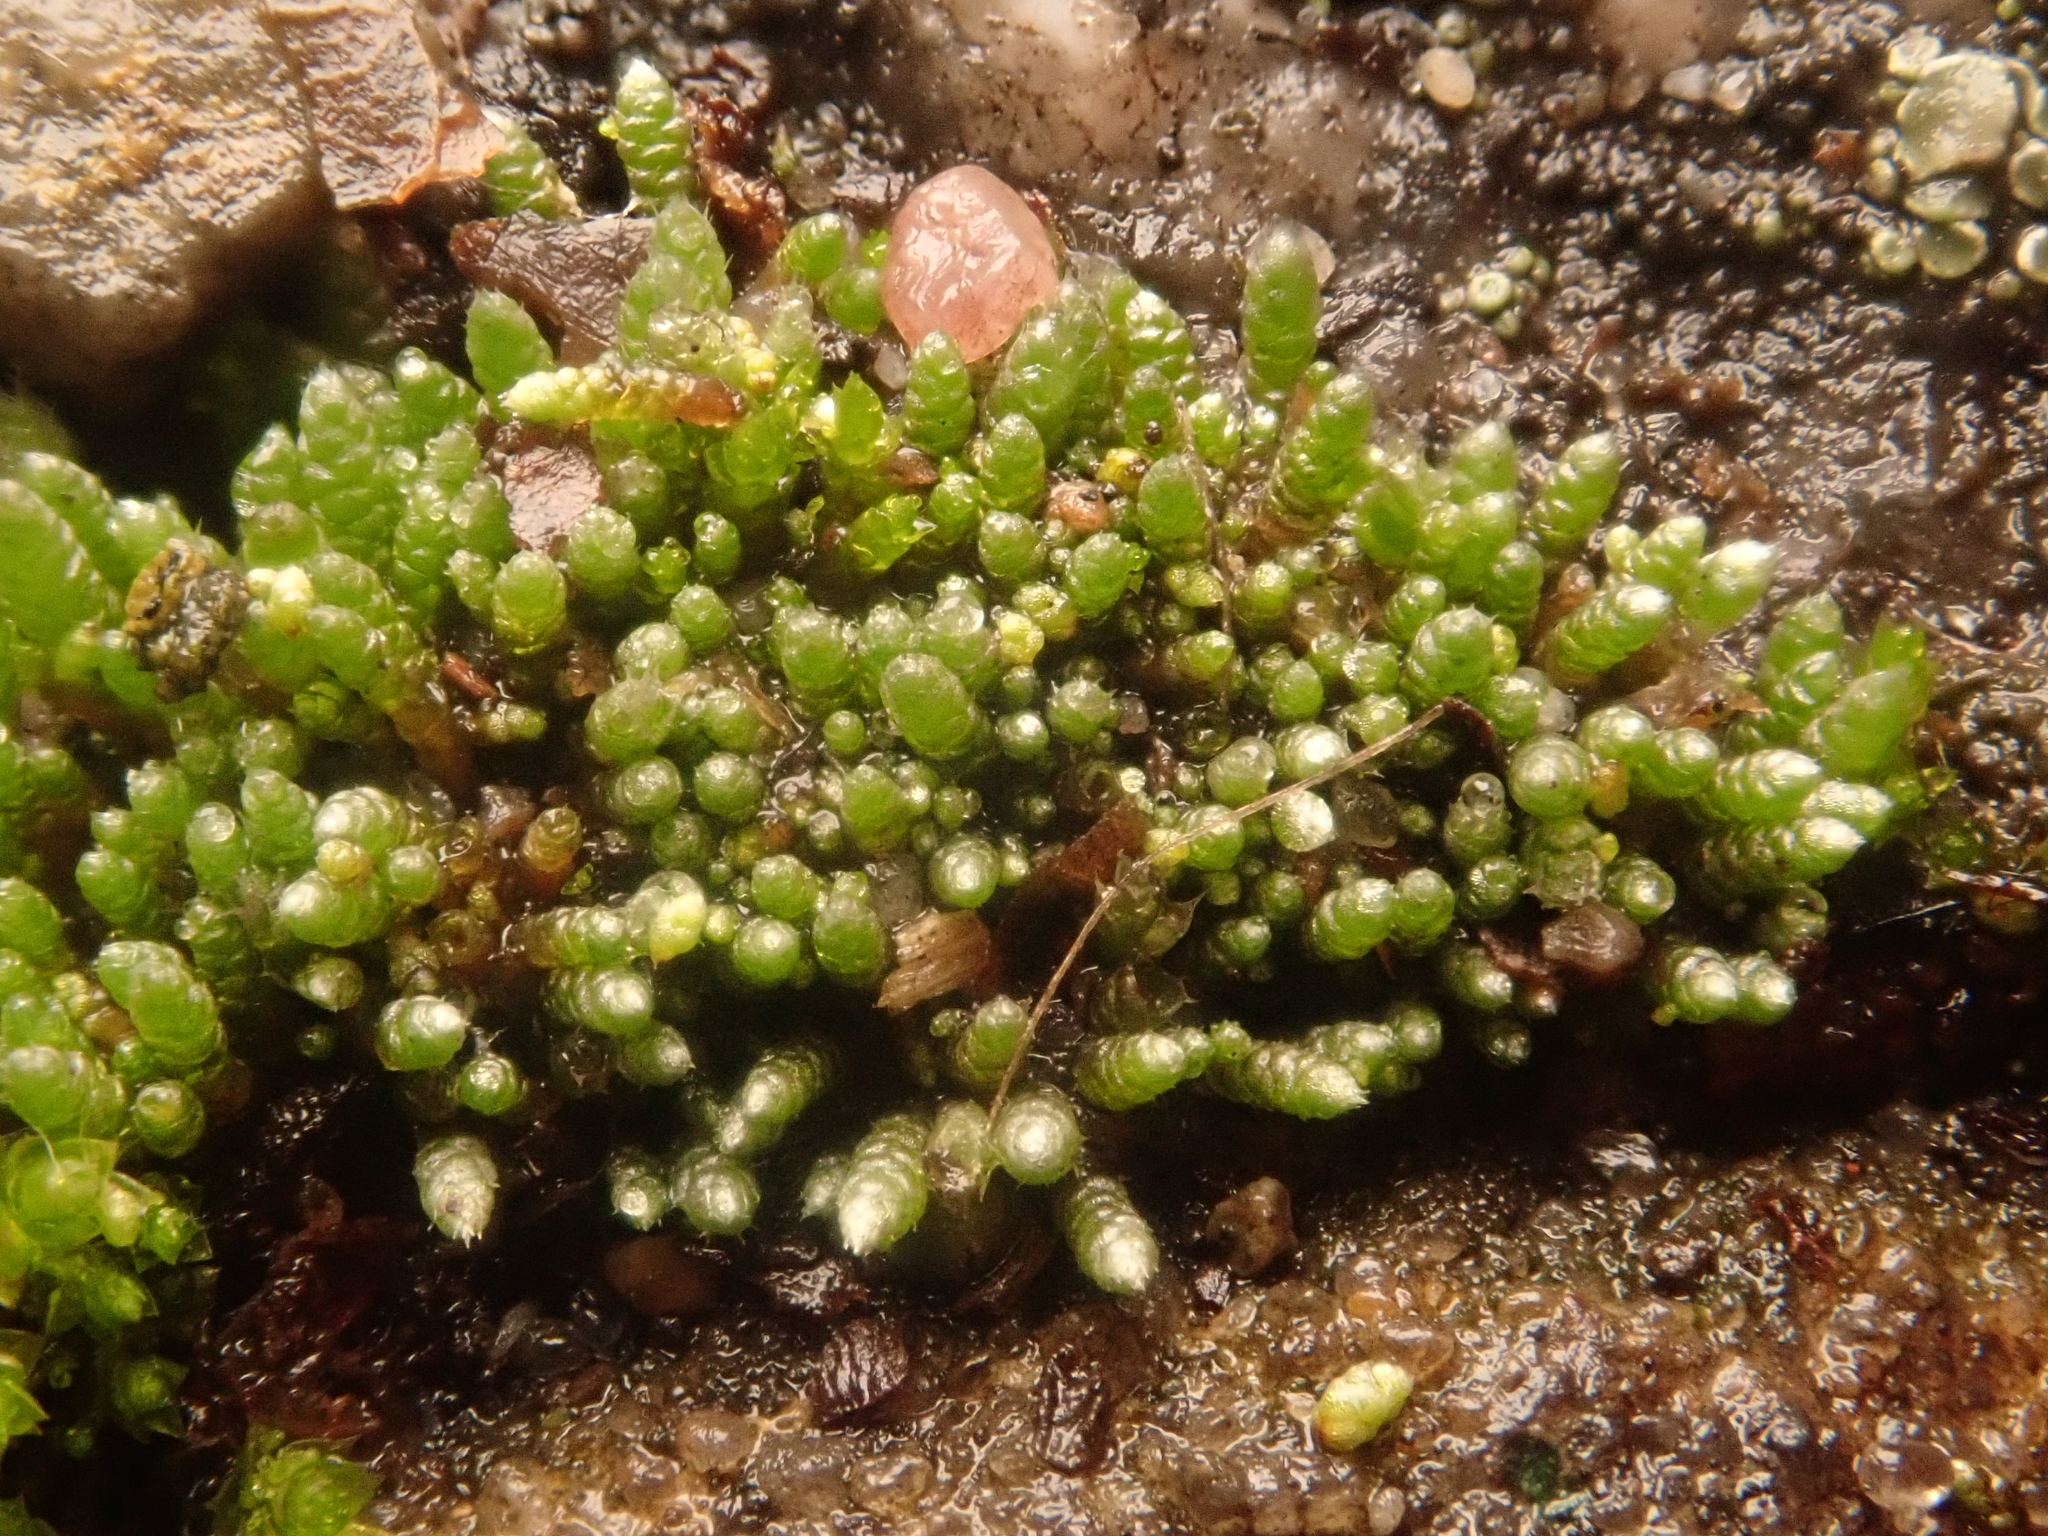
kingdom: Plantae
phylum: Bryophyta
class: Bryopsida
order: Bryales
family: Bryaceae
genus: Bryum
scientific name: Bryum argenteum
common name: Silver-moss
